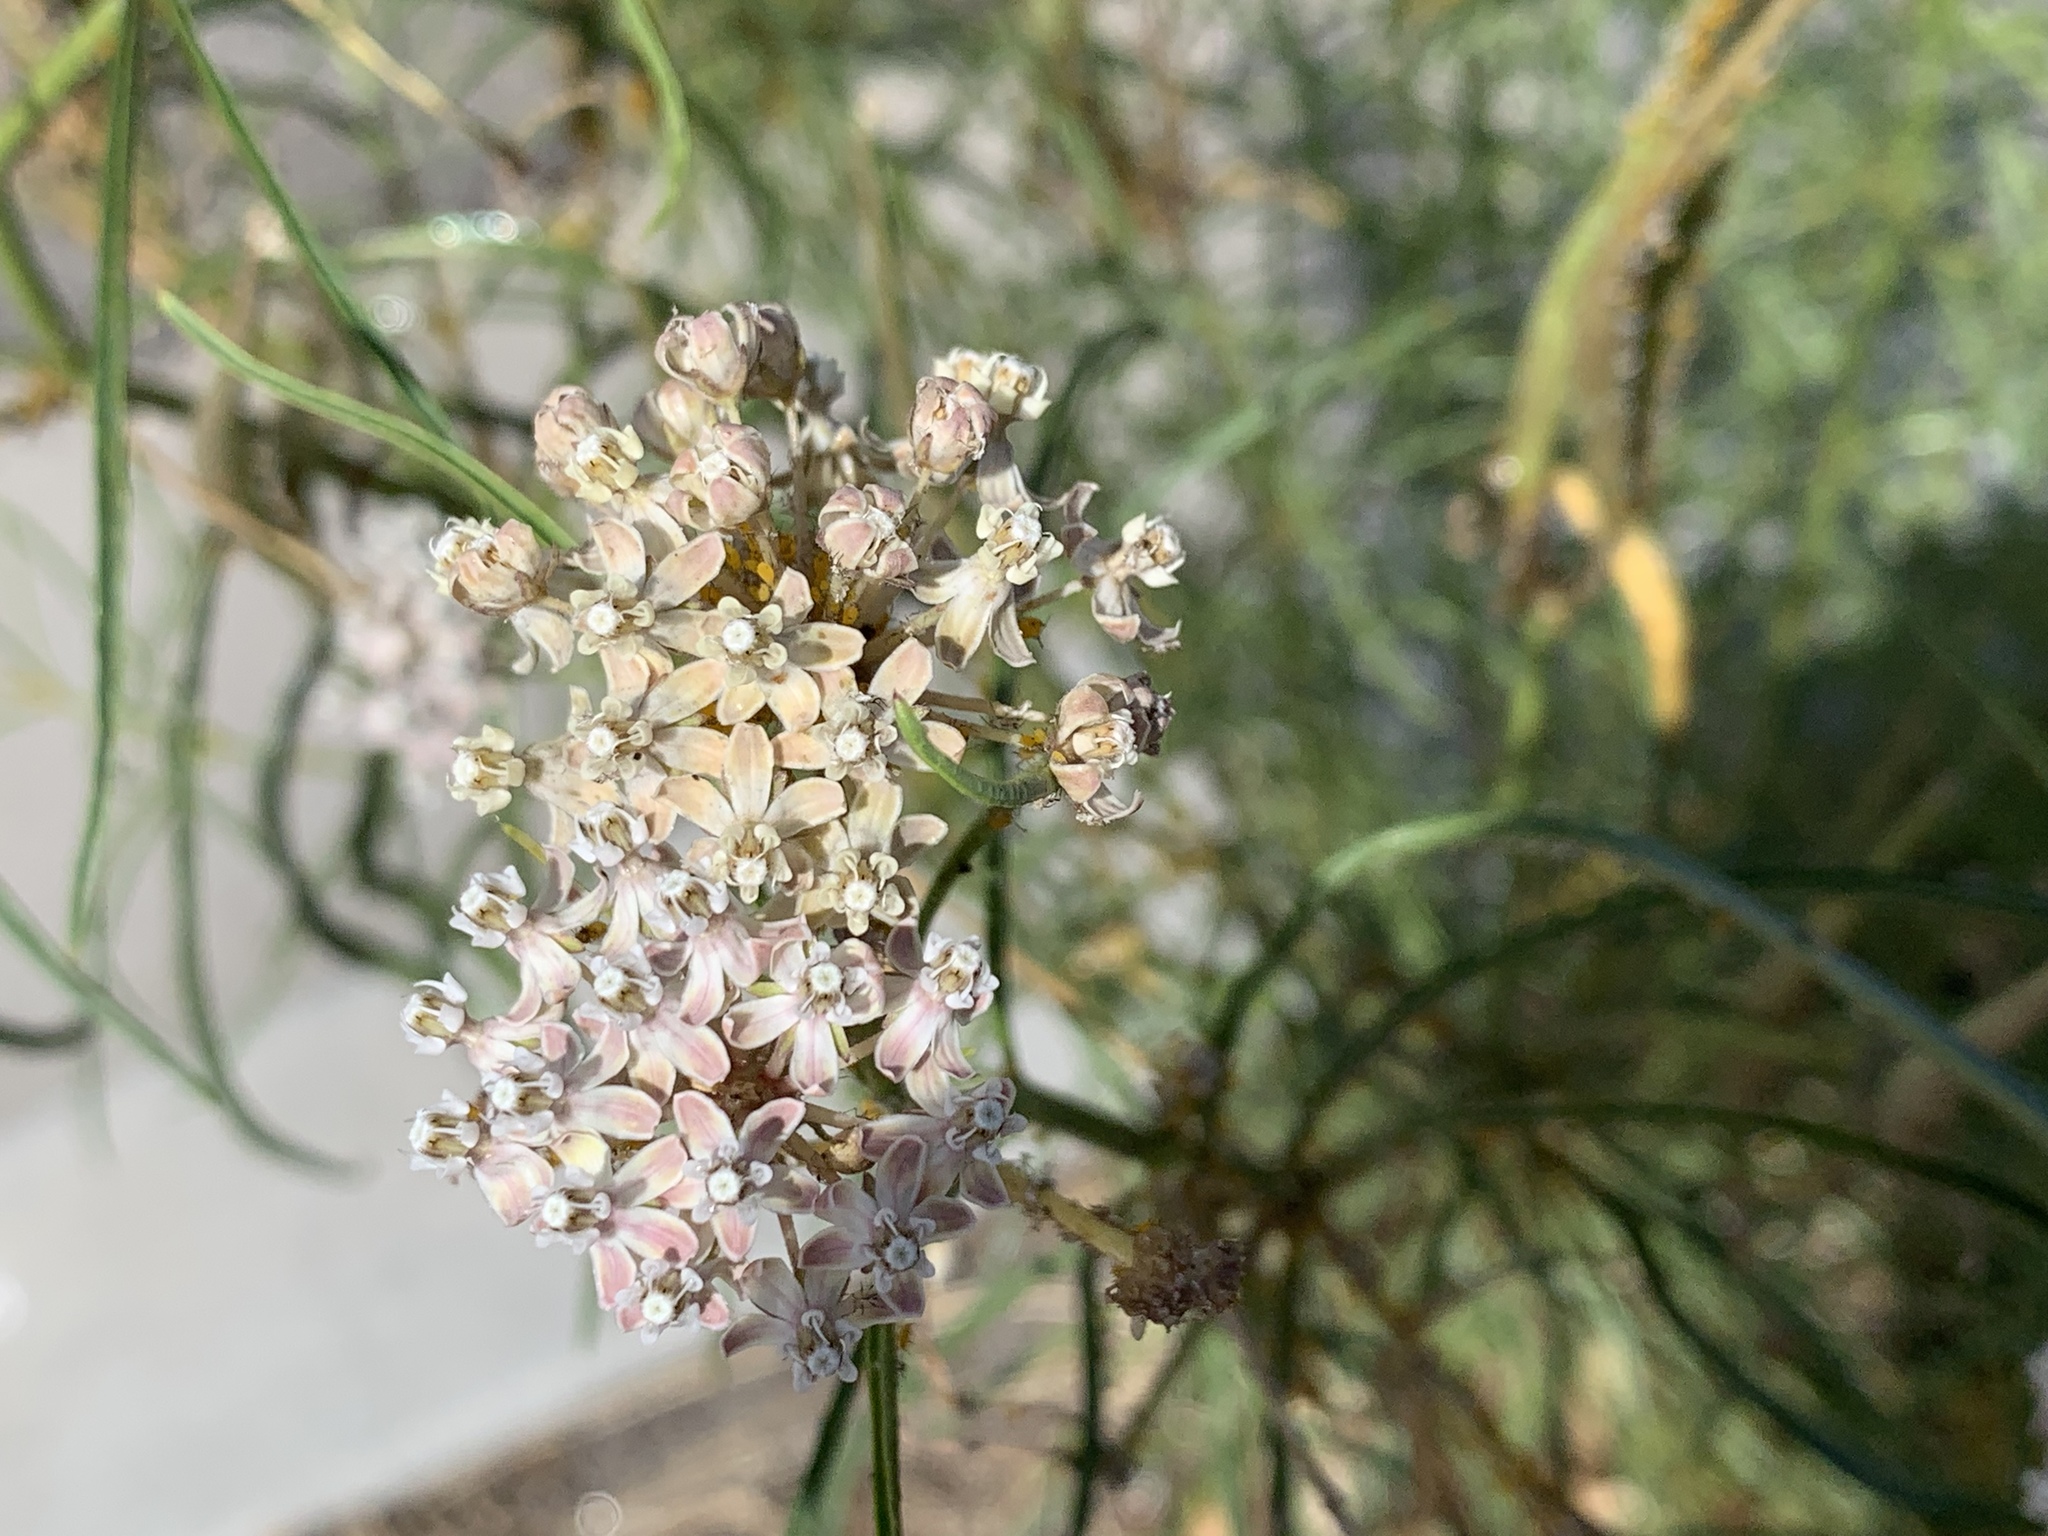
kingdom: Plantae
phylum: Tracheophyta
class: Magnoliopsida
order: Gentianales
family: Apocynaceae
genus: Asclepias
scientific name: Asclepias fascicularis
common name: Mexican milkweed
